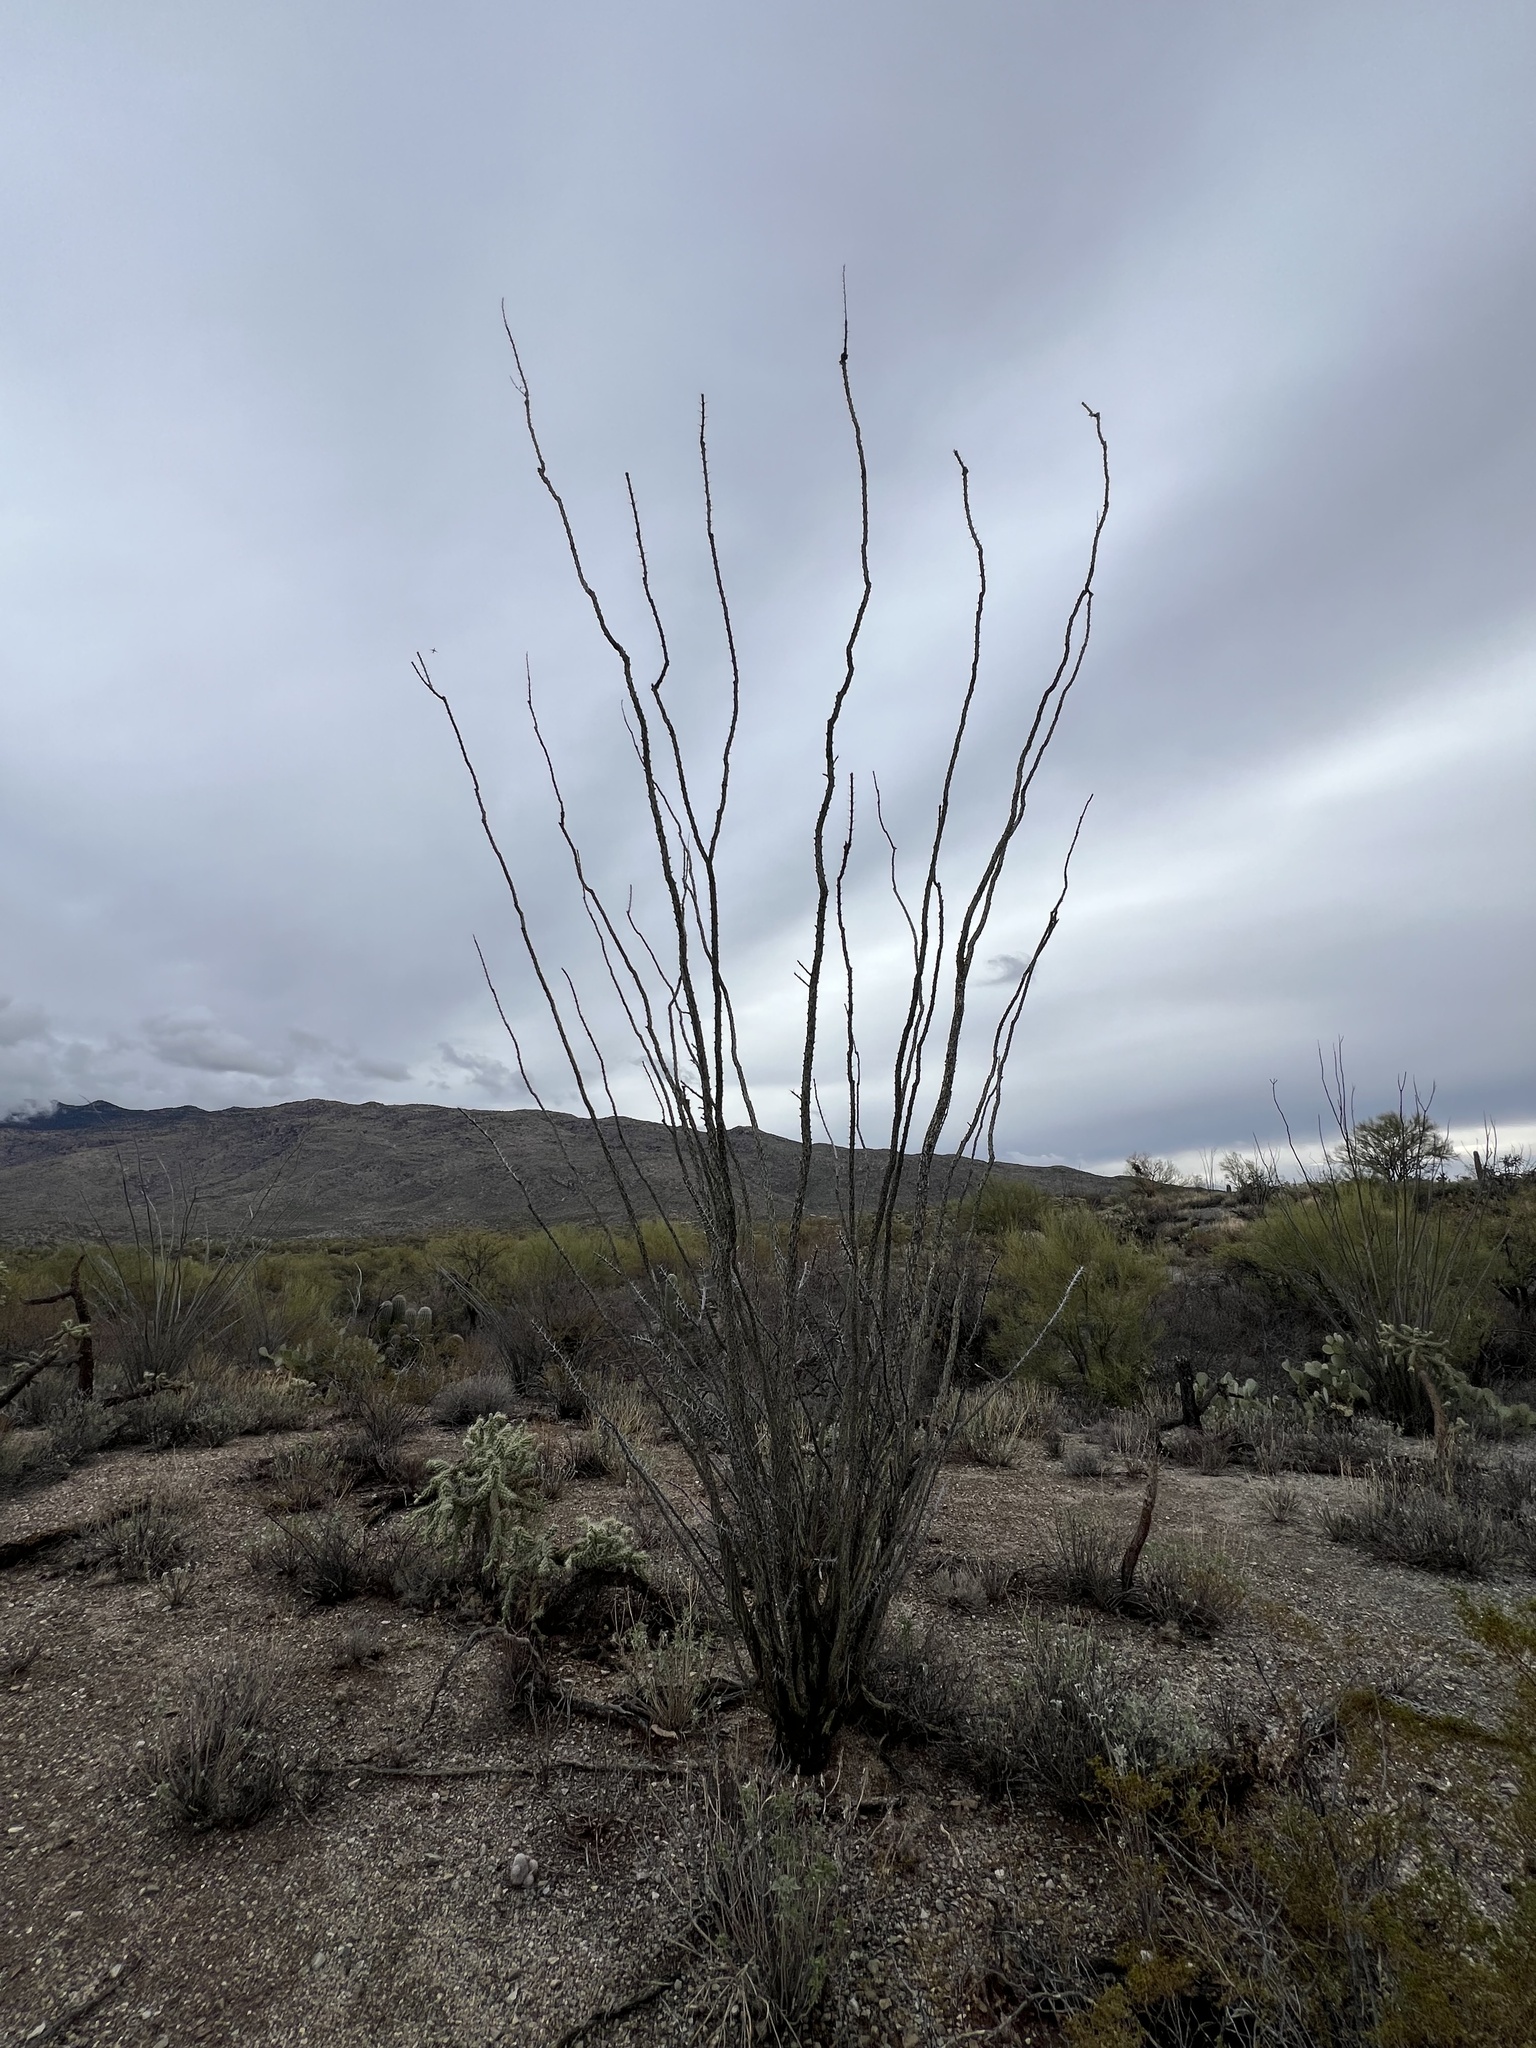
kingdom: Plantae
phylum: Tracheophyta
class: Magnoliopsida
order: Ericales
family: Fouquieriaceae
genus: Fouquieria
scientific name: Fouquieria splendens
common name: Vine-cactus
